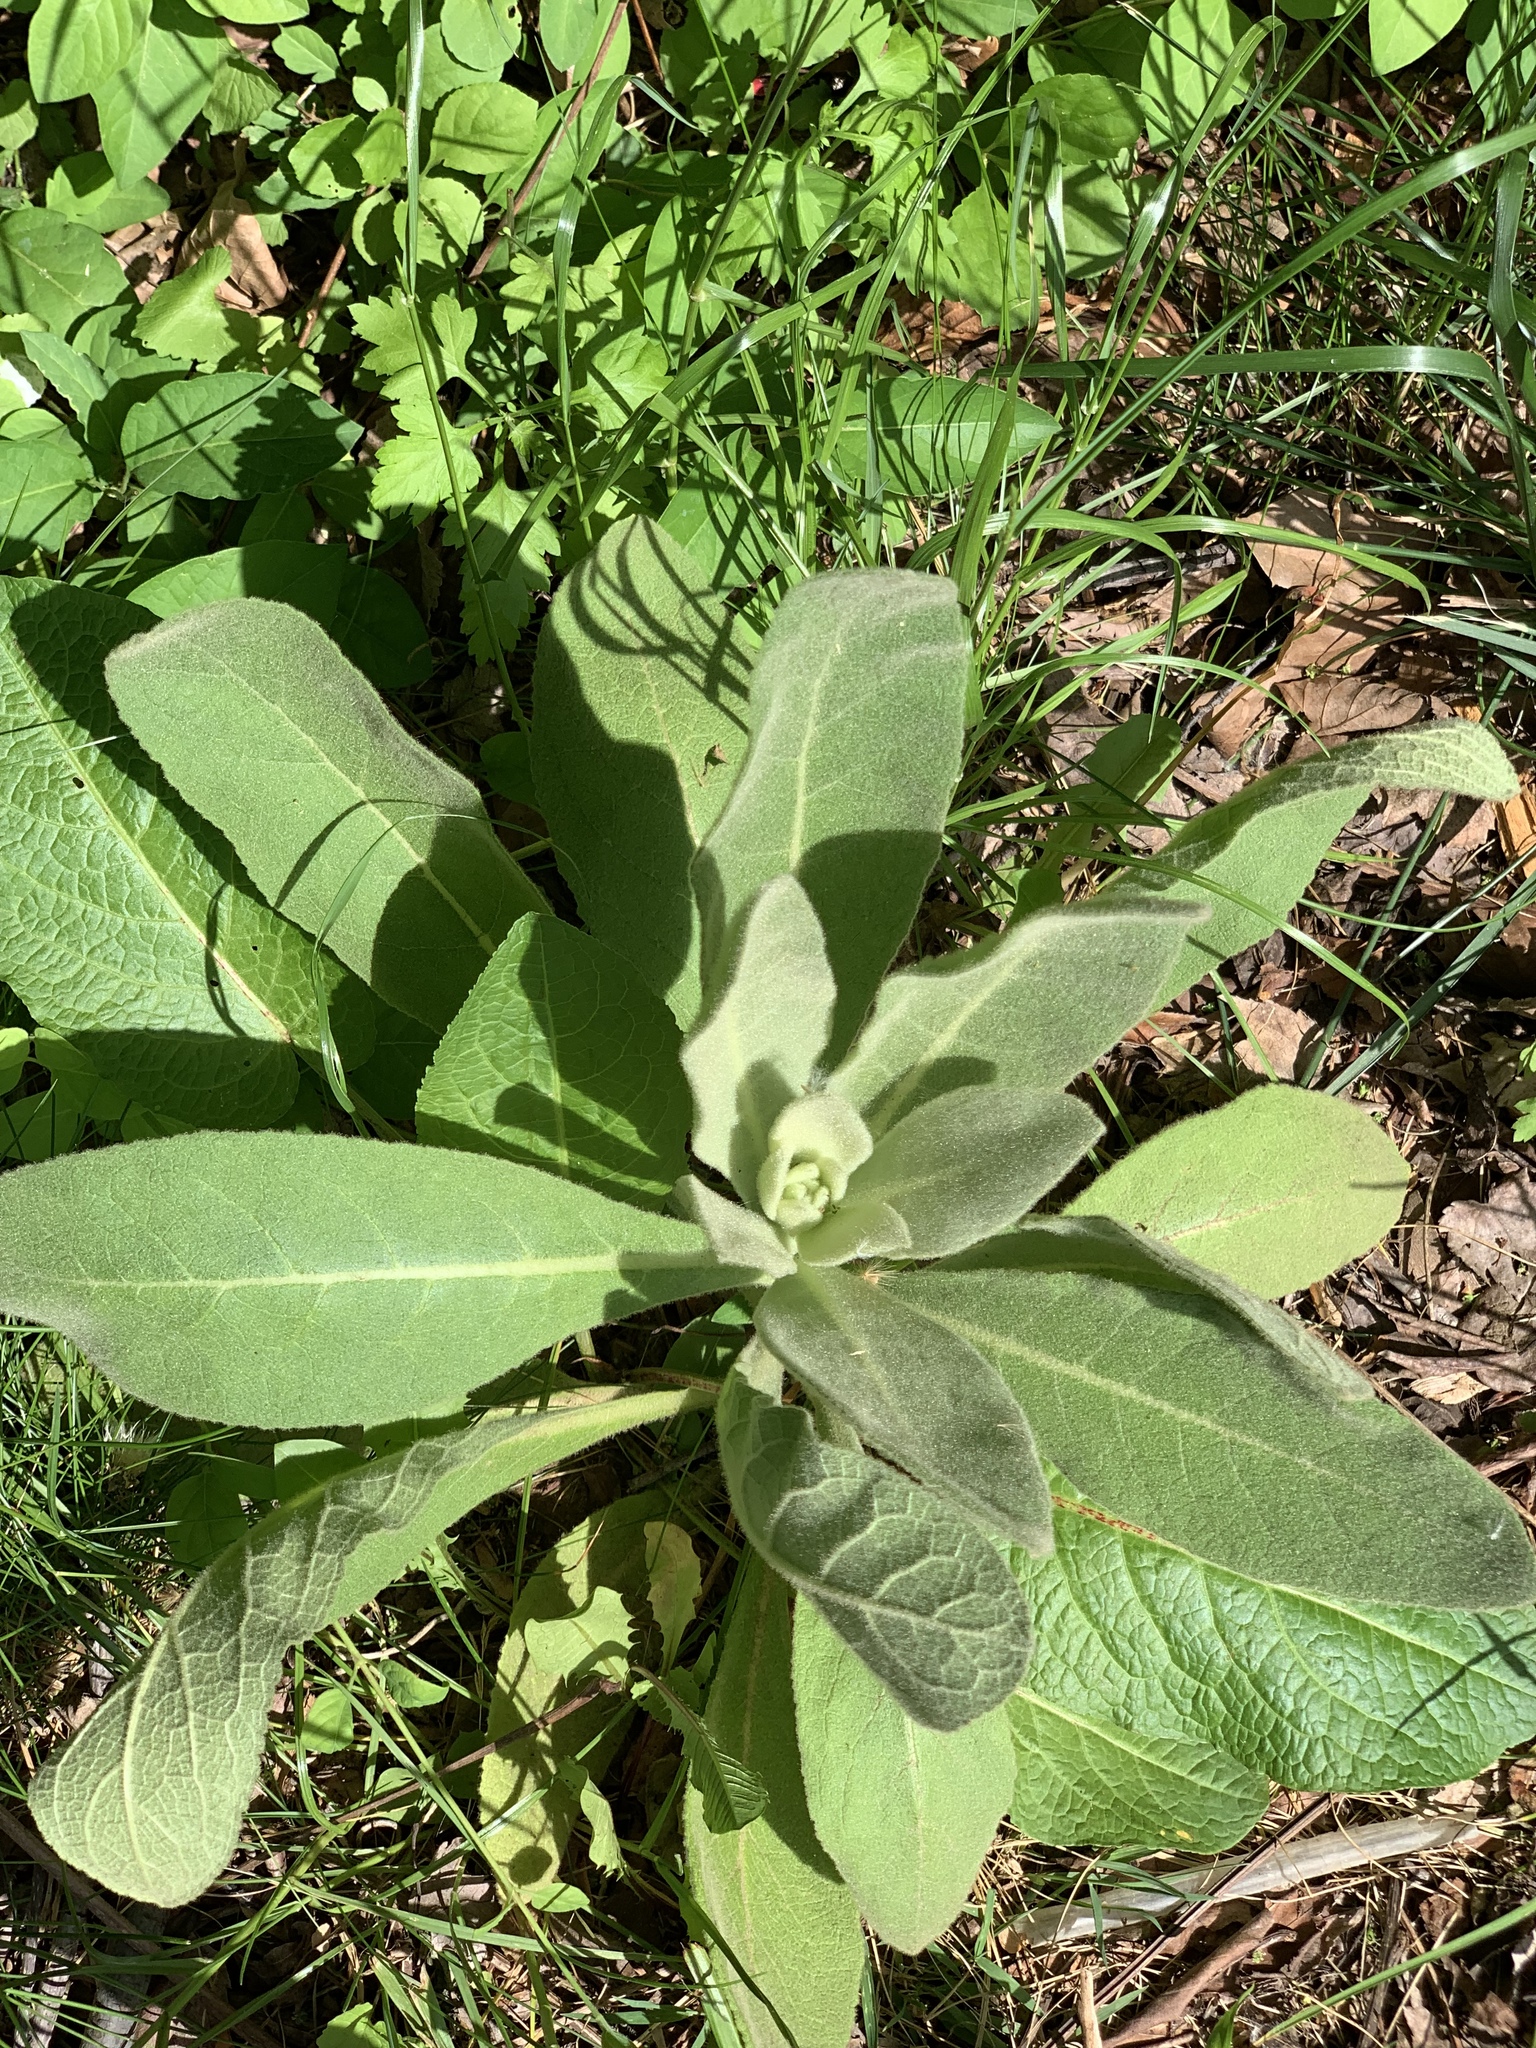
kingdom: Plantae
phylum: Tracheophyta
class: Magnoliopsida
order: Lamiales
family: Scrophulariaceae
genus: Verbascum
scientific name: Verbascum thapsus
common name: Common mullein
